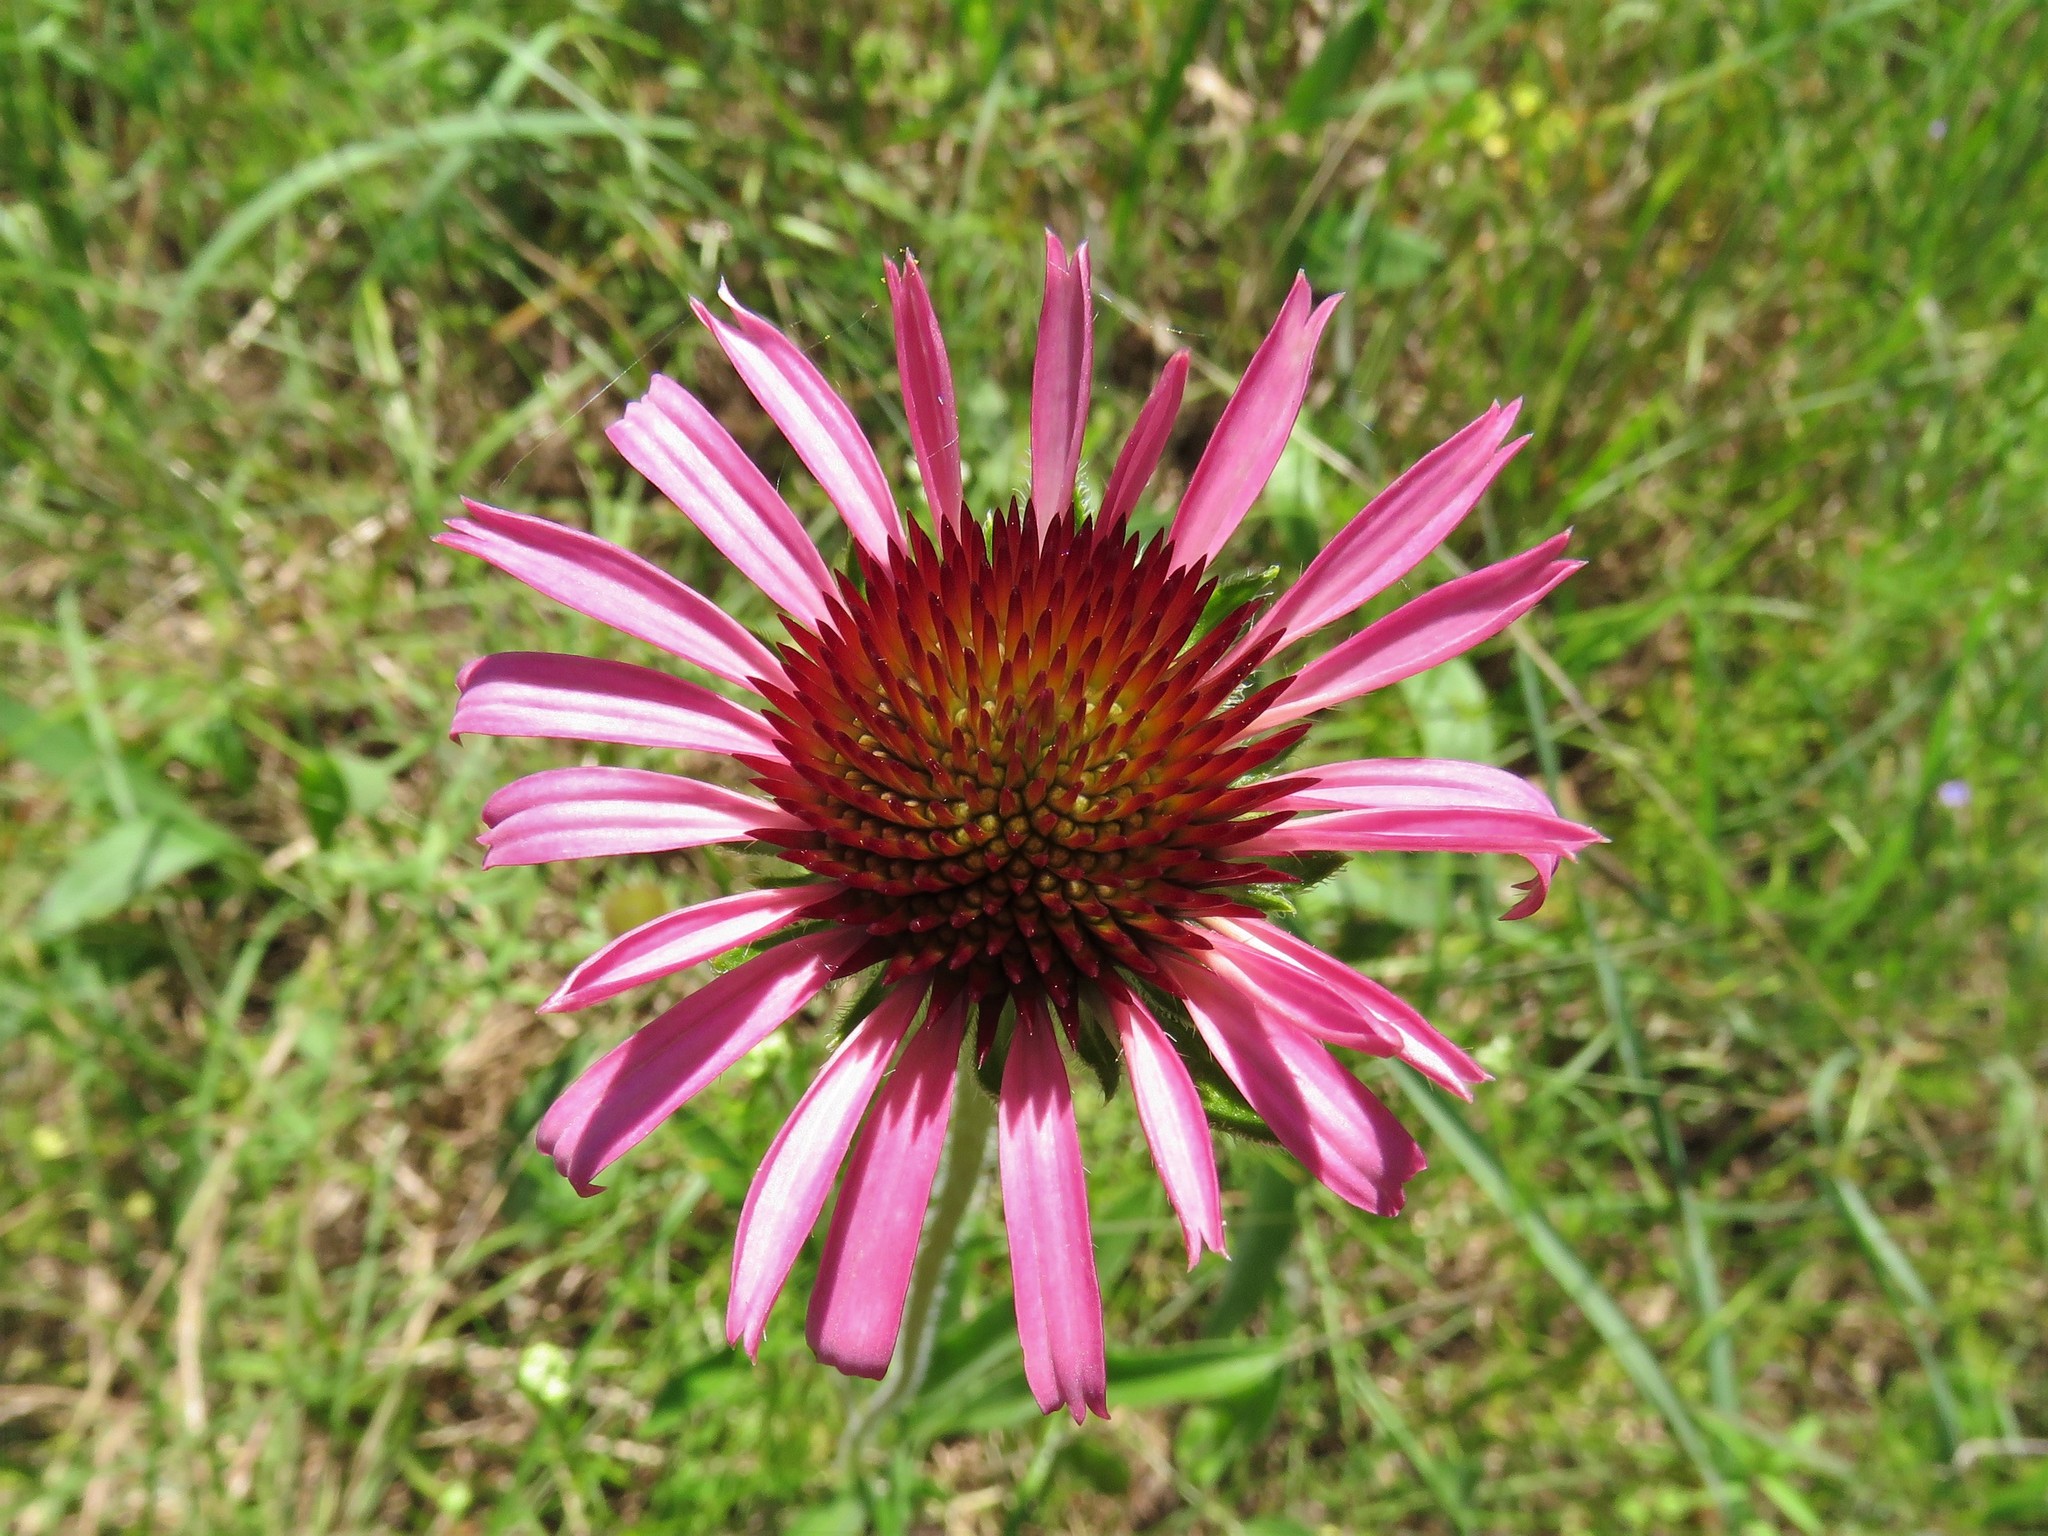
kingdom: Plantae
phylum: Tracheophyta
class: Magnoliopsida
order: Asterales
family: Asteraceae
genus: Echinacea
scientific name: Echinacea angustifolia
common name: Black-sampson echinacea
